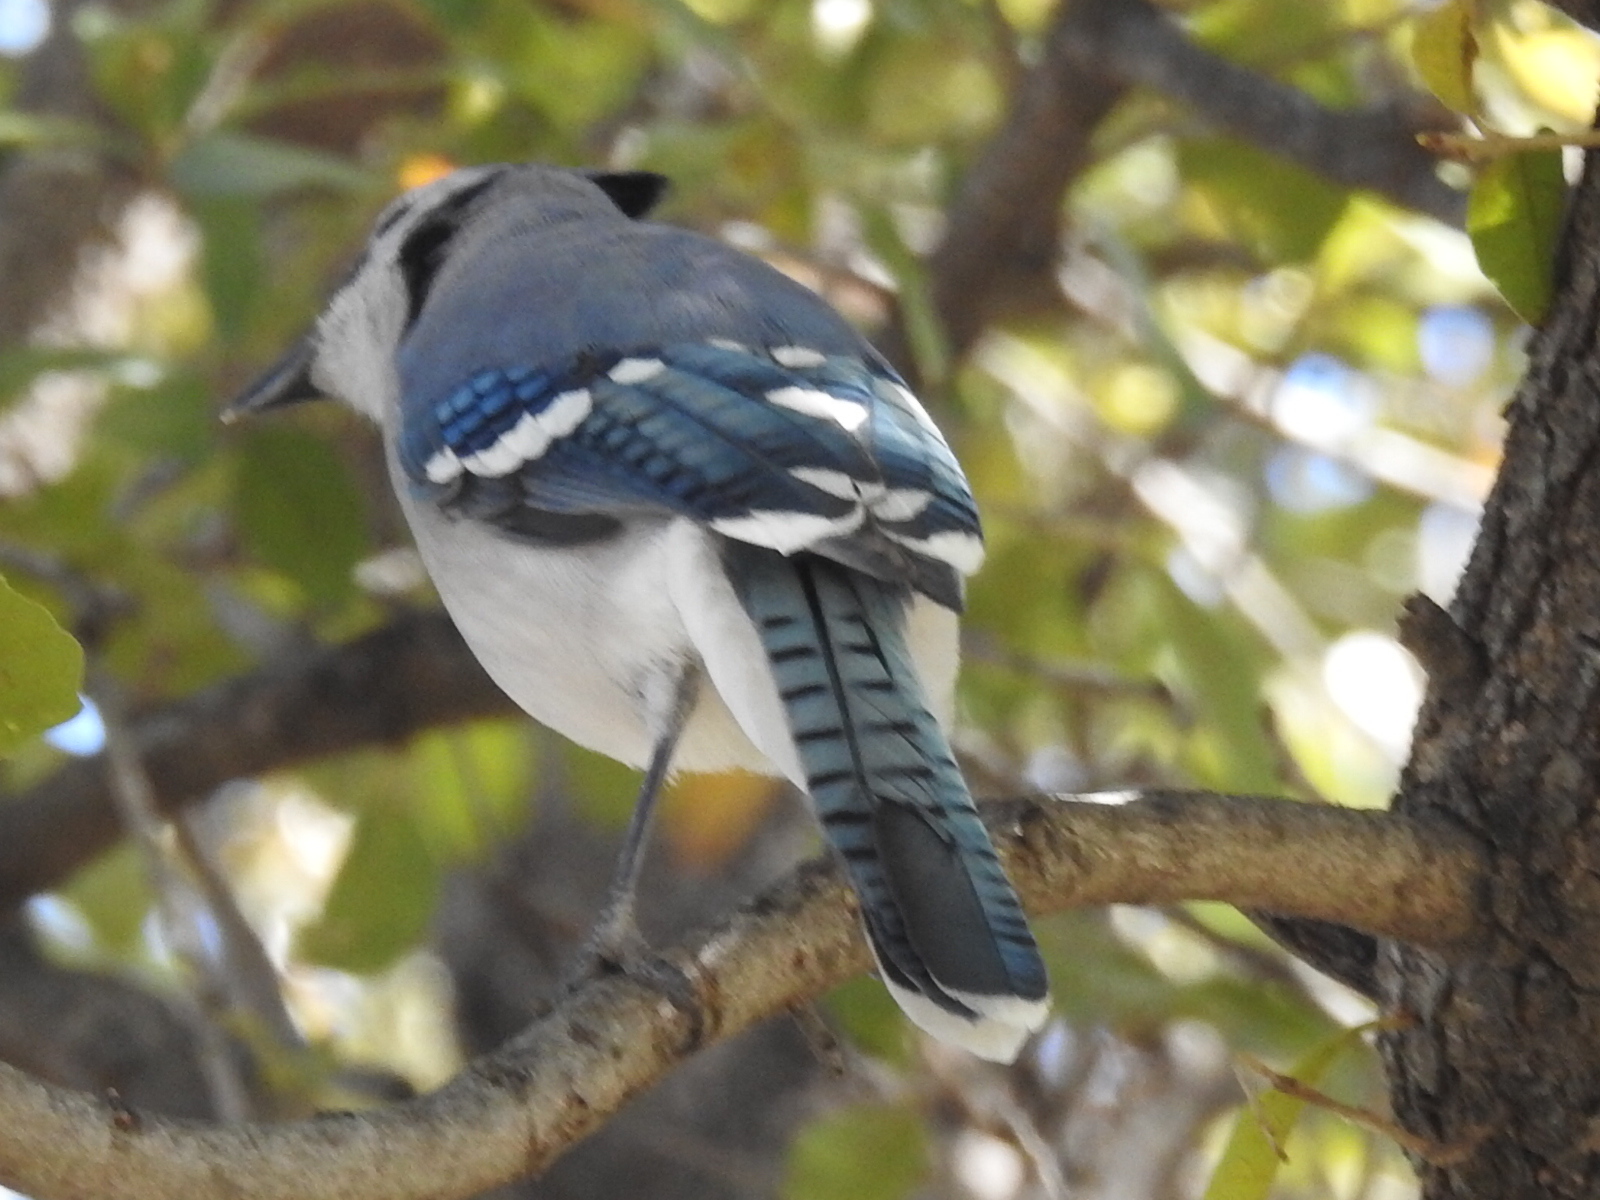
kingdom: Animalia
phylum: Chordata
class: Aves
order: Passeriformes
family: Corvidae
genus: Cyanocitta
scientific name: Cyanocitta cristata
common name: Blue jay
